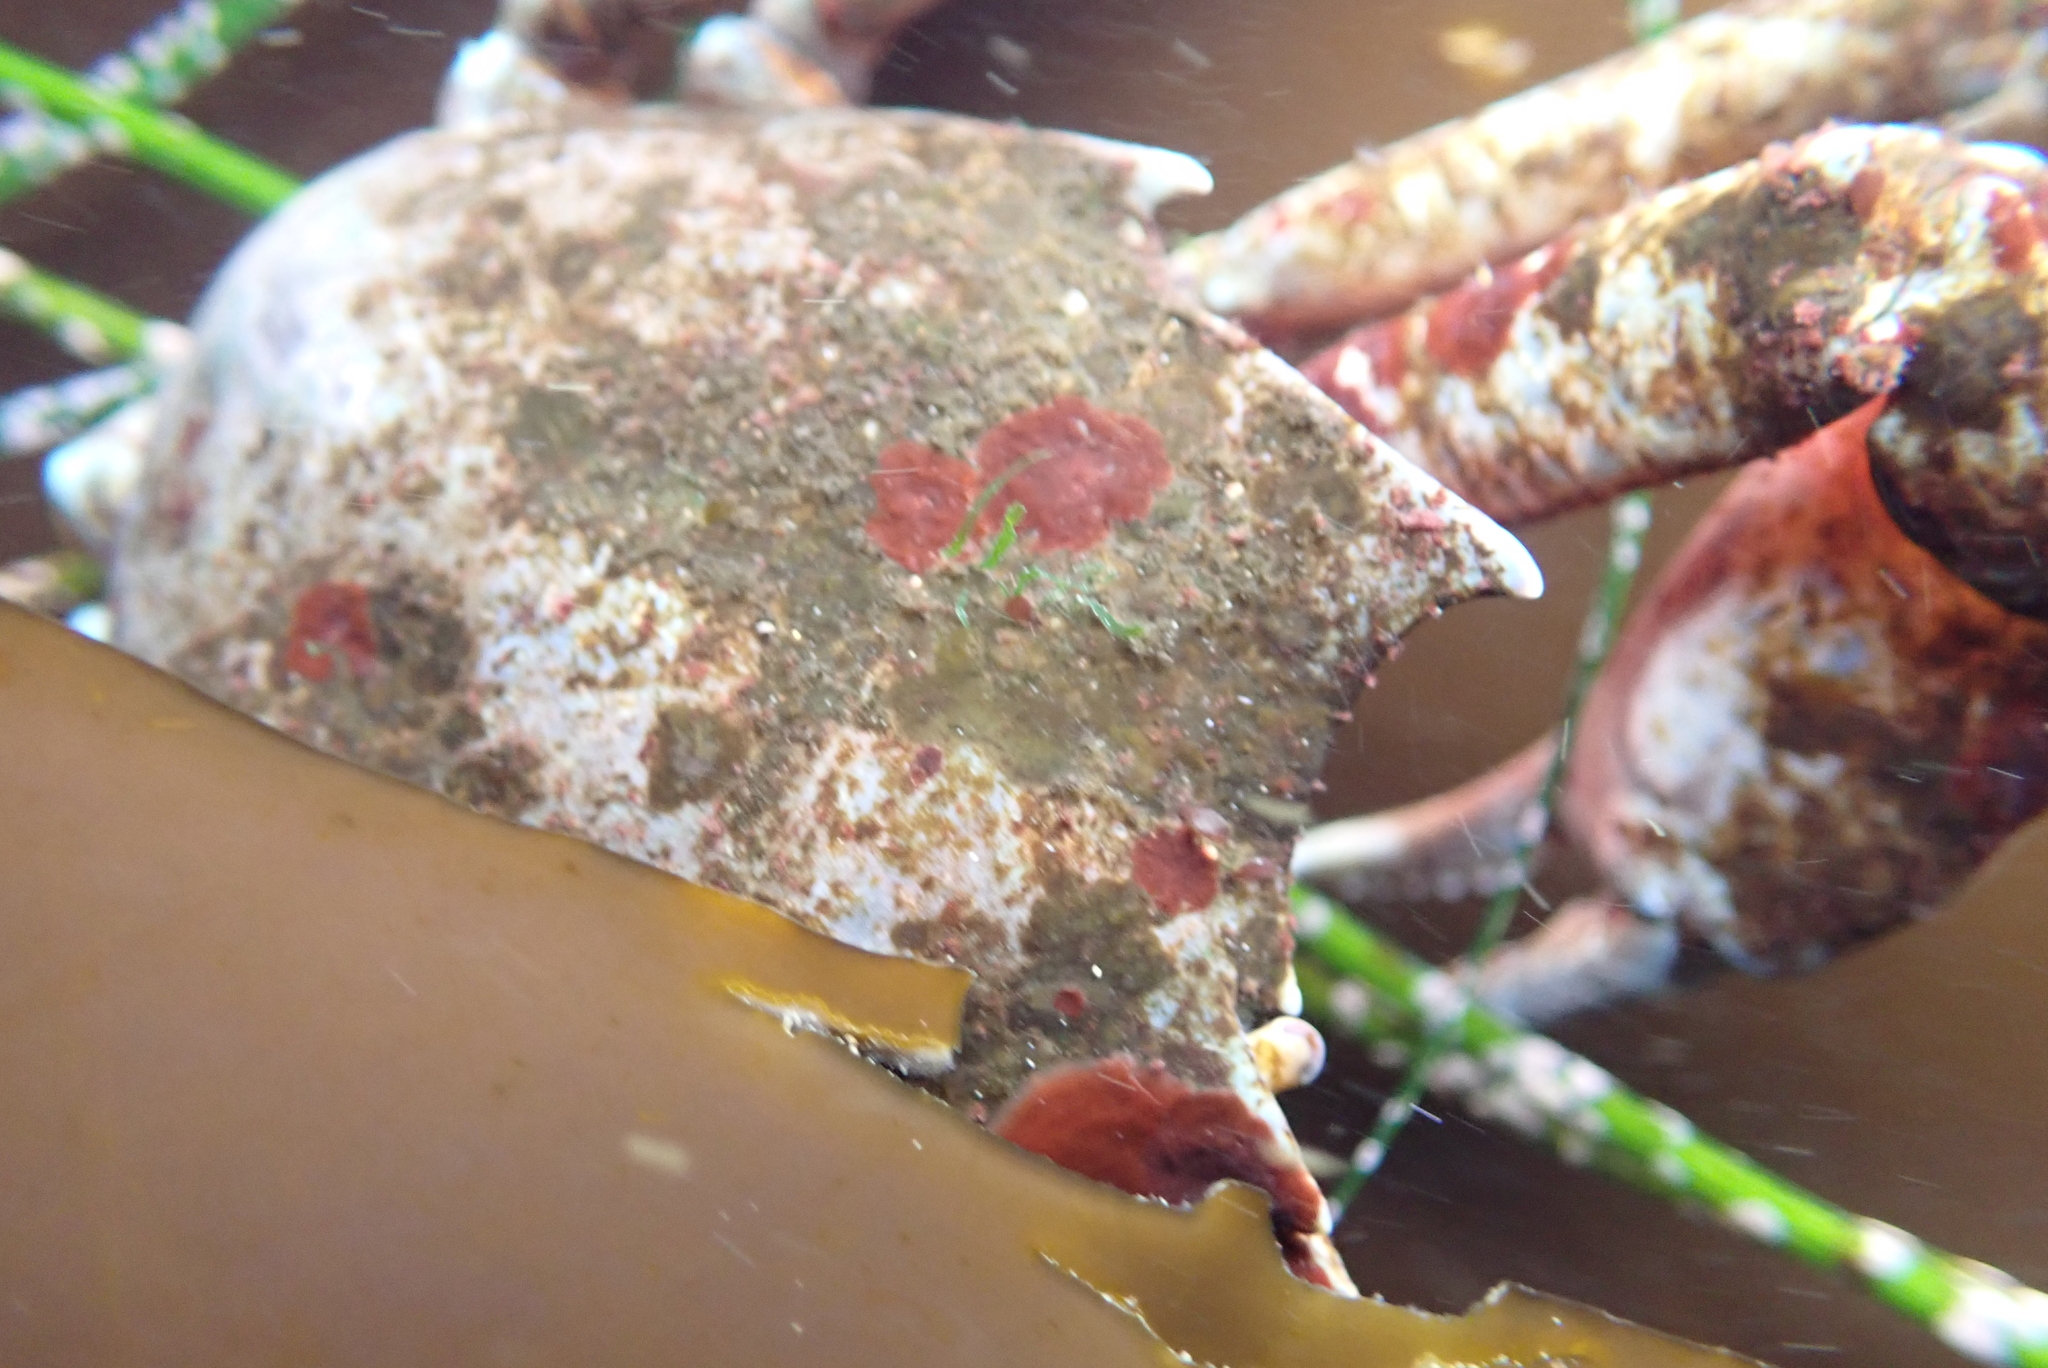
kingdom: Animalia
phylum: Arthropoda
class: Malacostraca
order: Decapoda
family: Epialtidae
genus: Pugettia
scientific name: Pugettia producta
